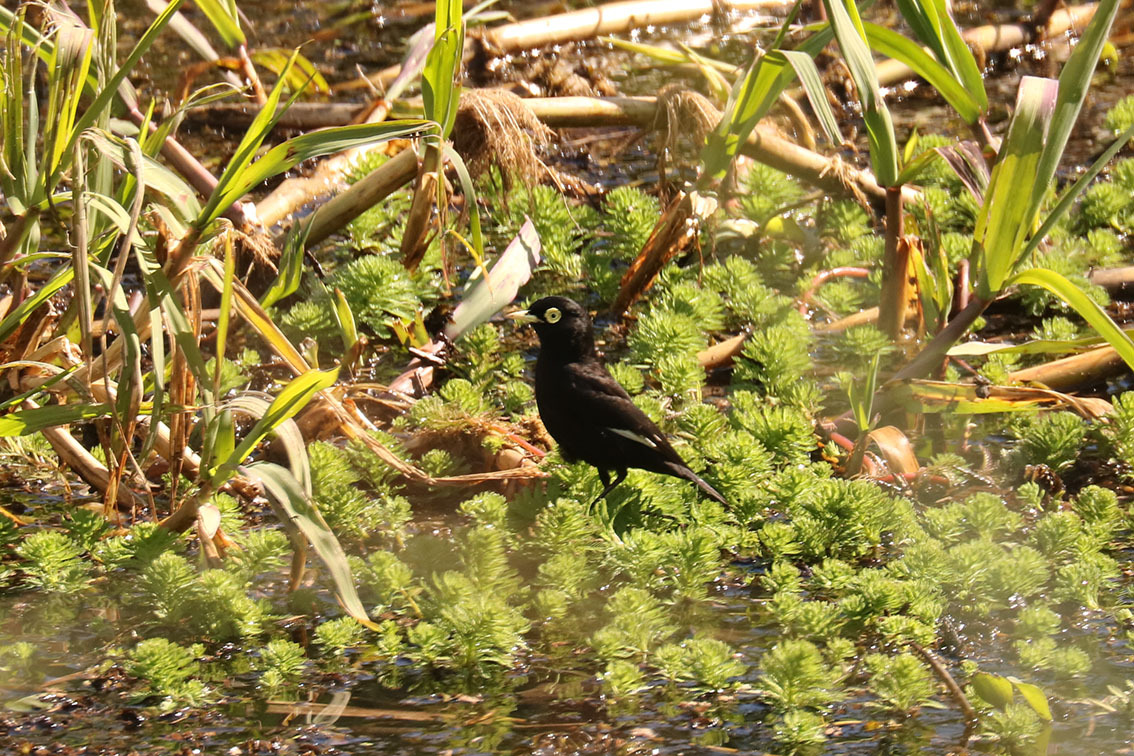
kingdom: Animalia
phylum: Chordata
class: Aves
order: Passeriformes
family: Tyrannidae
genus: Hymenops
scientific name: Hymenops perspicillatus
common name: Spectacled tyrant
